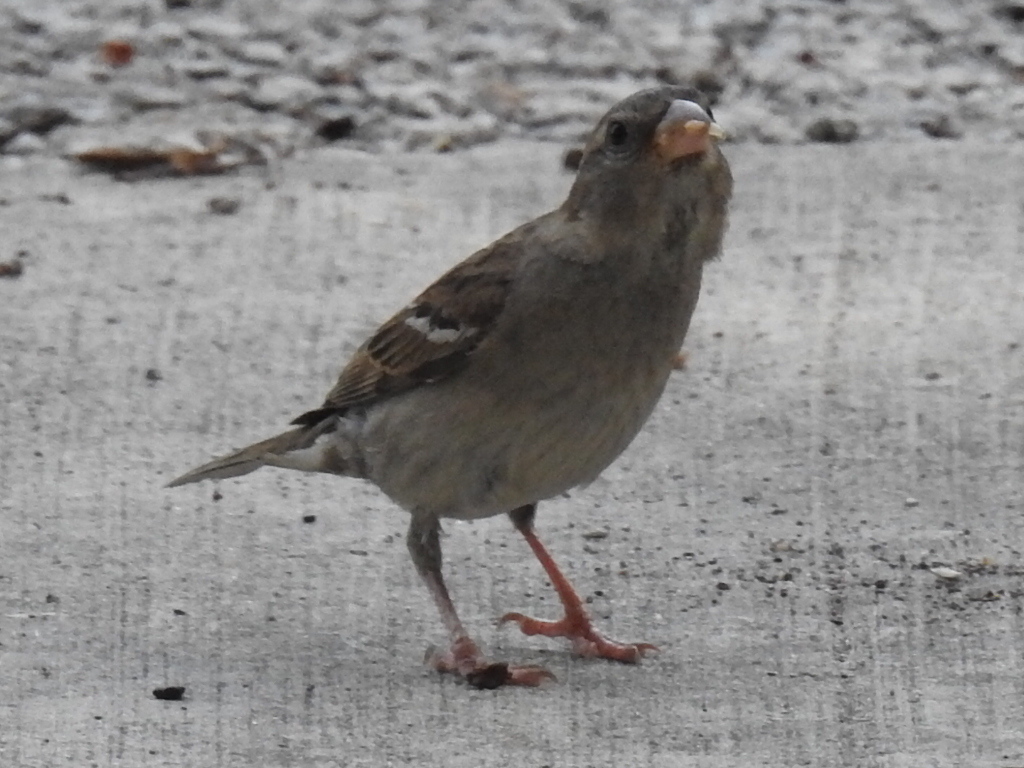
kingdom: Animalia
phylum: Chordata
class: Aves
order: Passeriformes
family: Passeridae
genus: Passer
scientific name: Passer domesticus
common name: House sparrow
